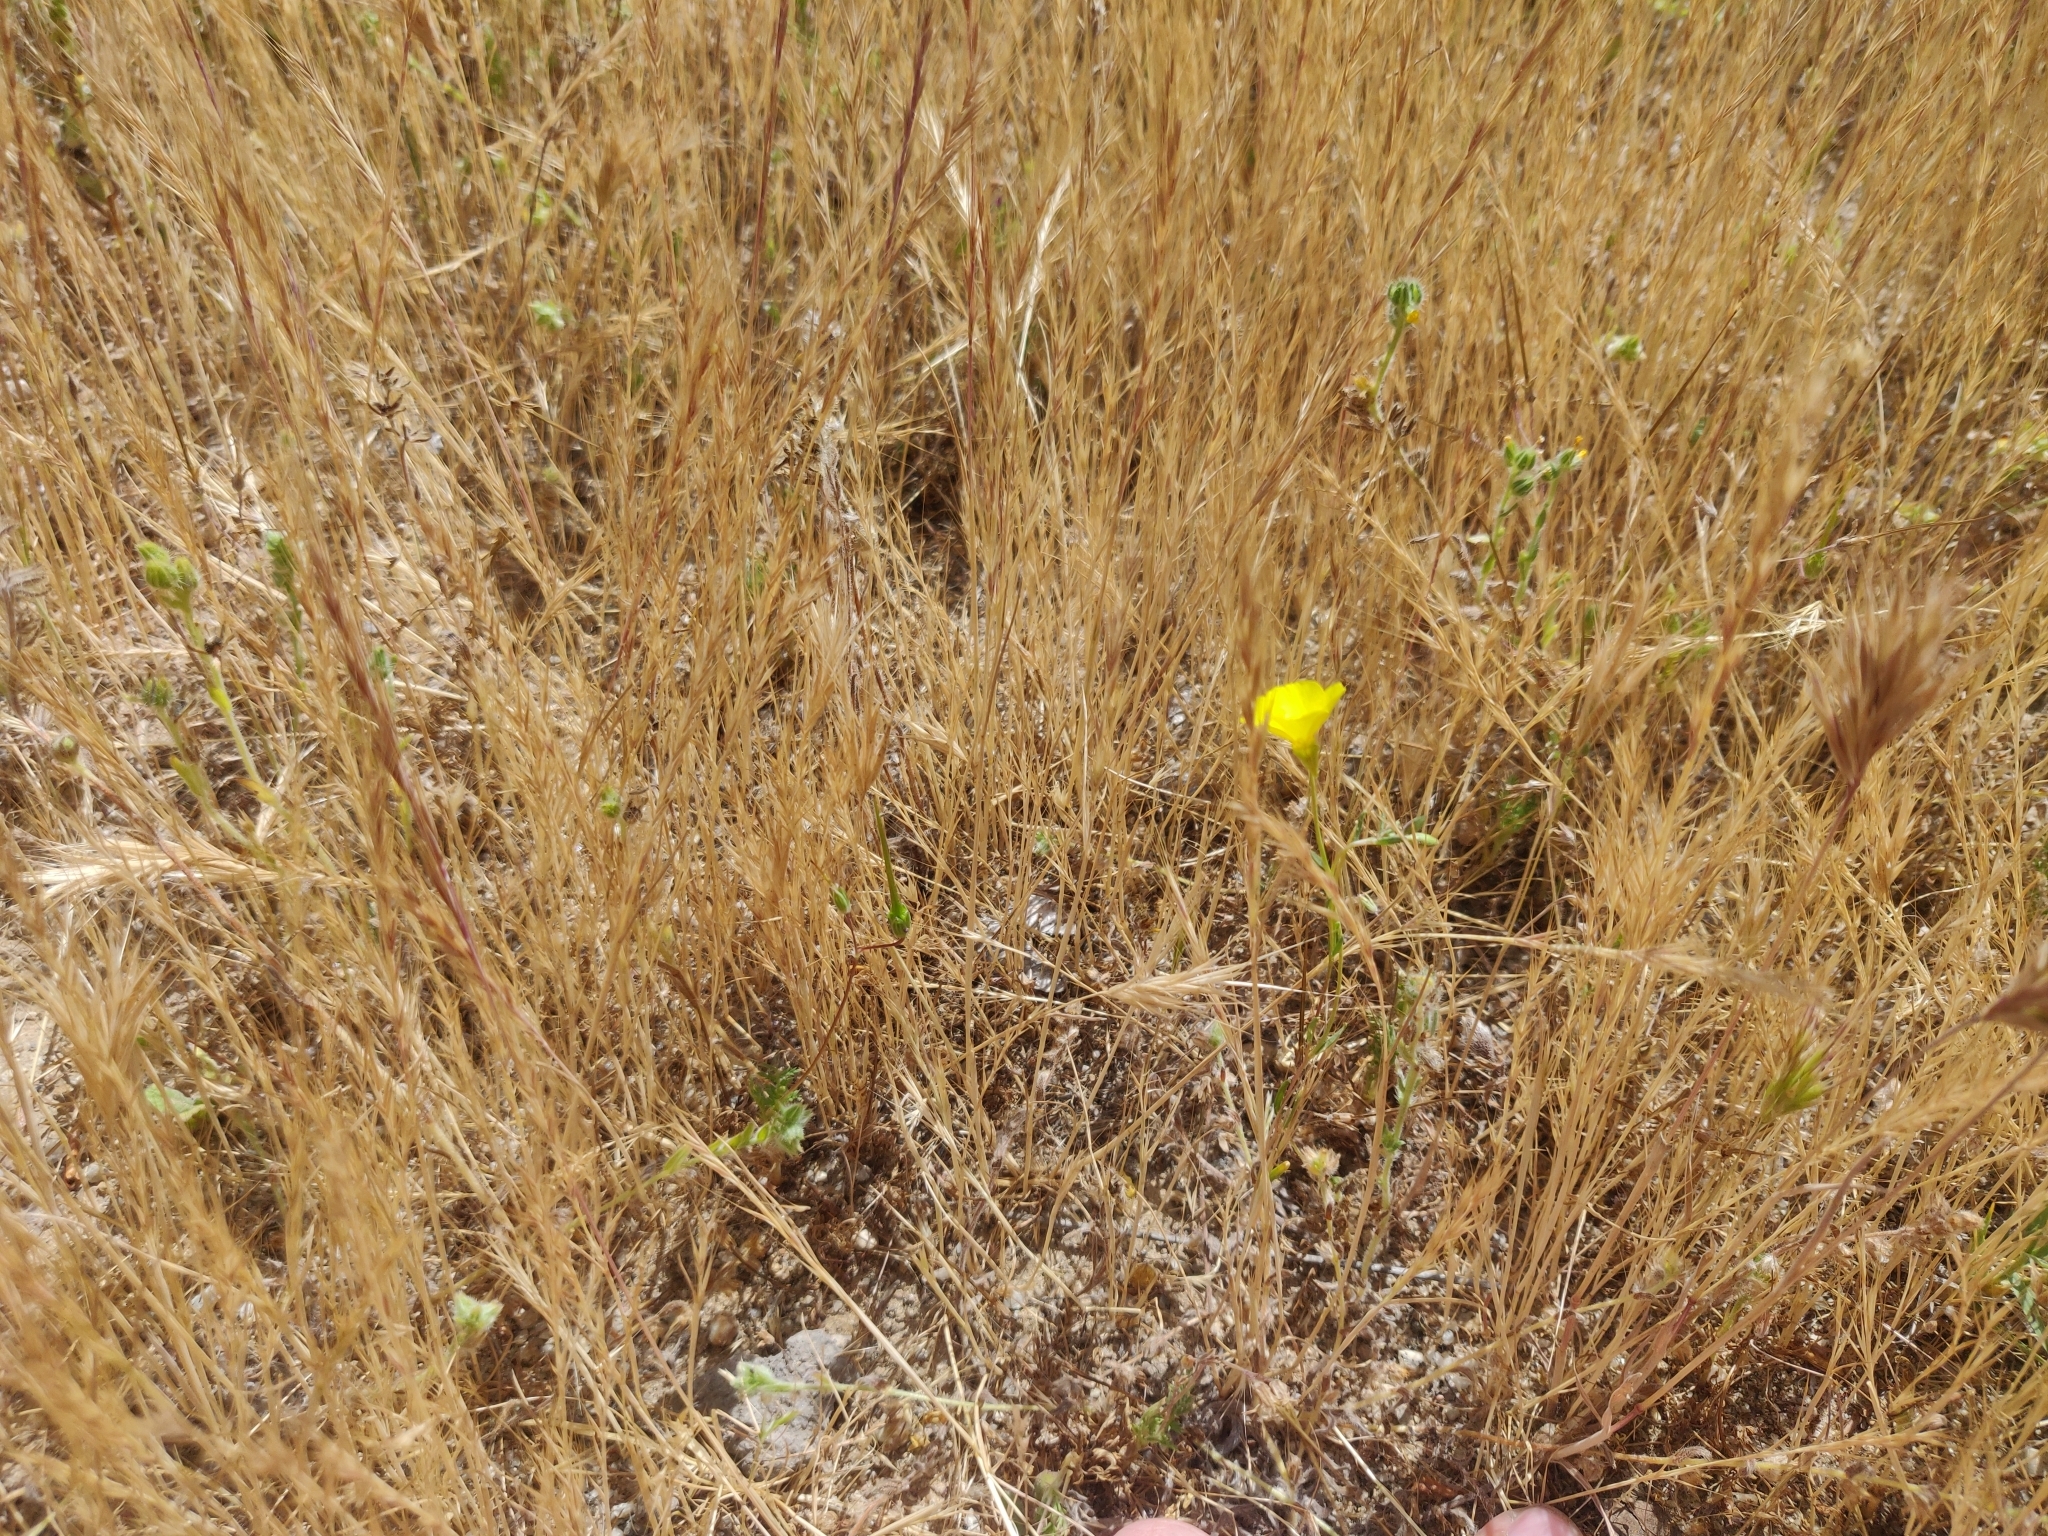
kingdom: Plantae
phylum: Tracheophyta
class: Magnoliopsida
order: Myrtales
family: Onagraceae
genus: Camissonia
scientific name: Camissonia campestris
